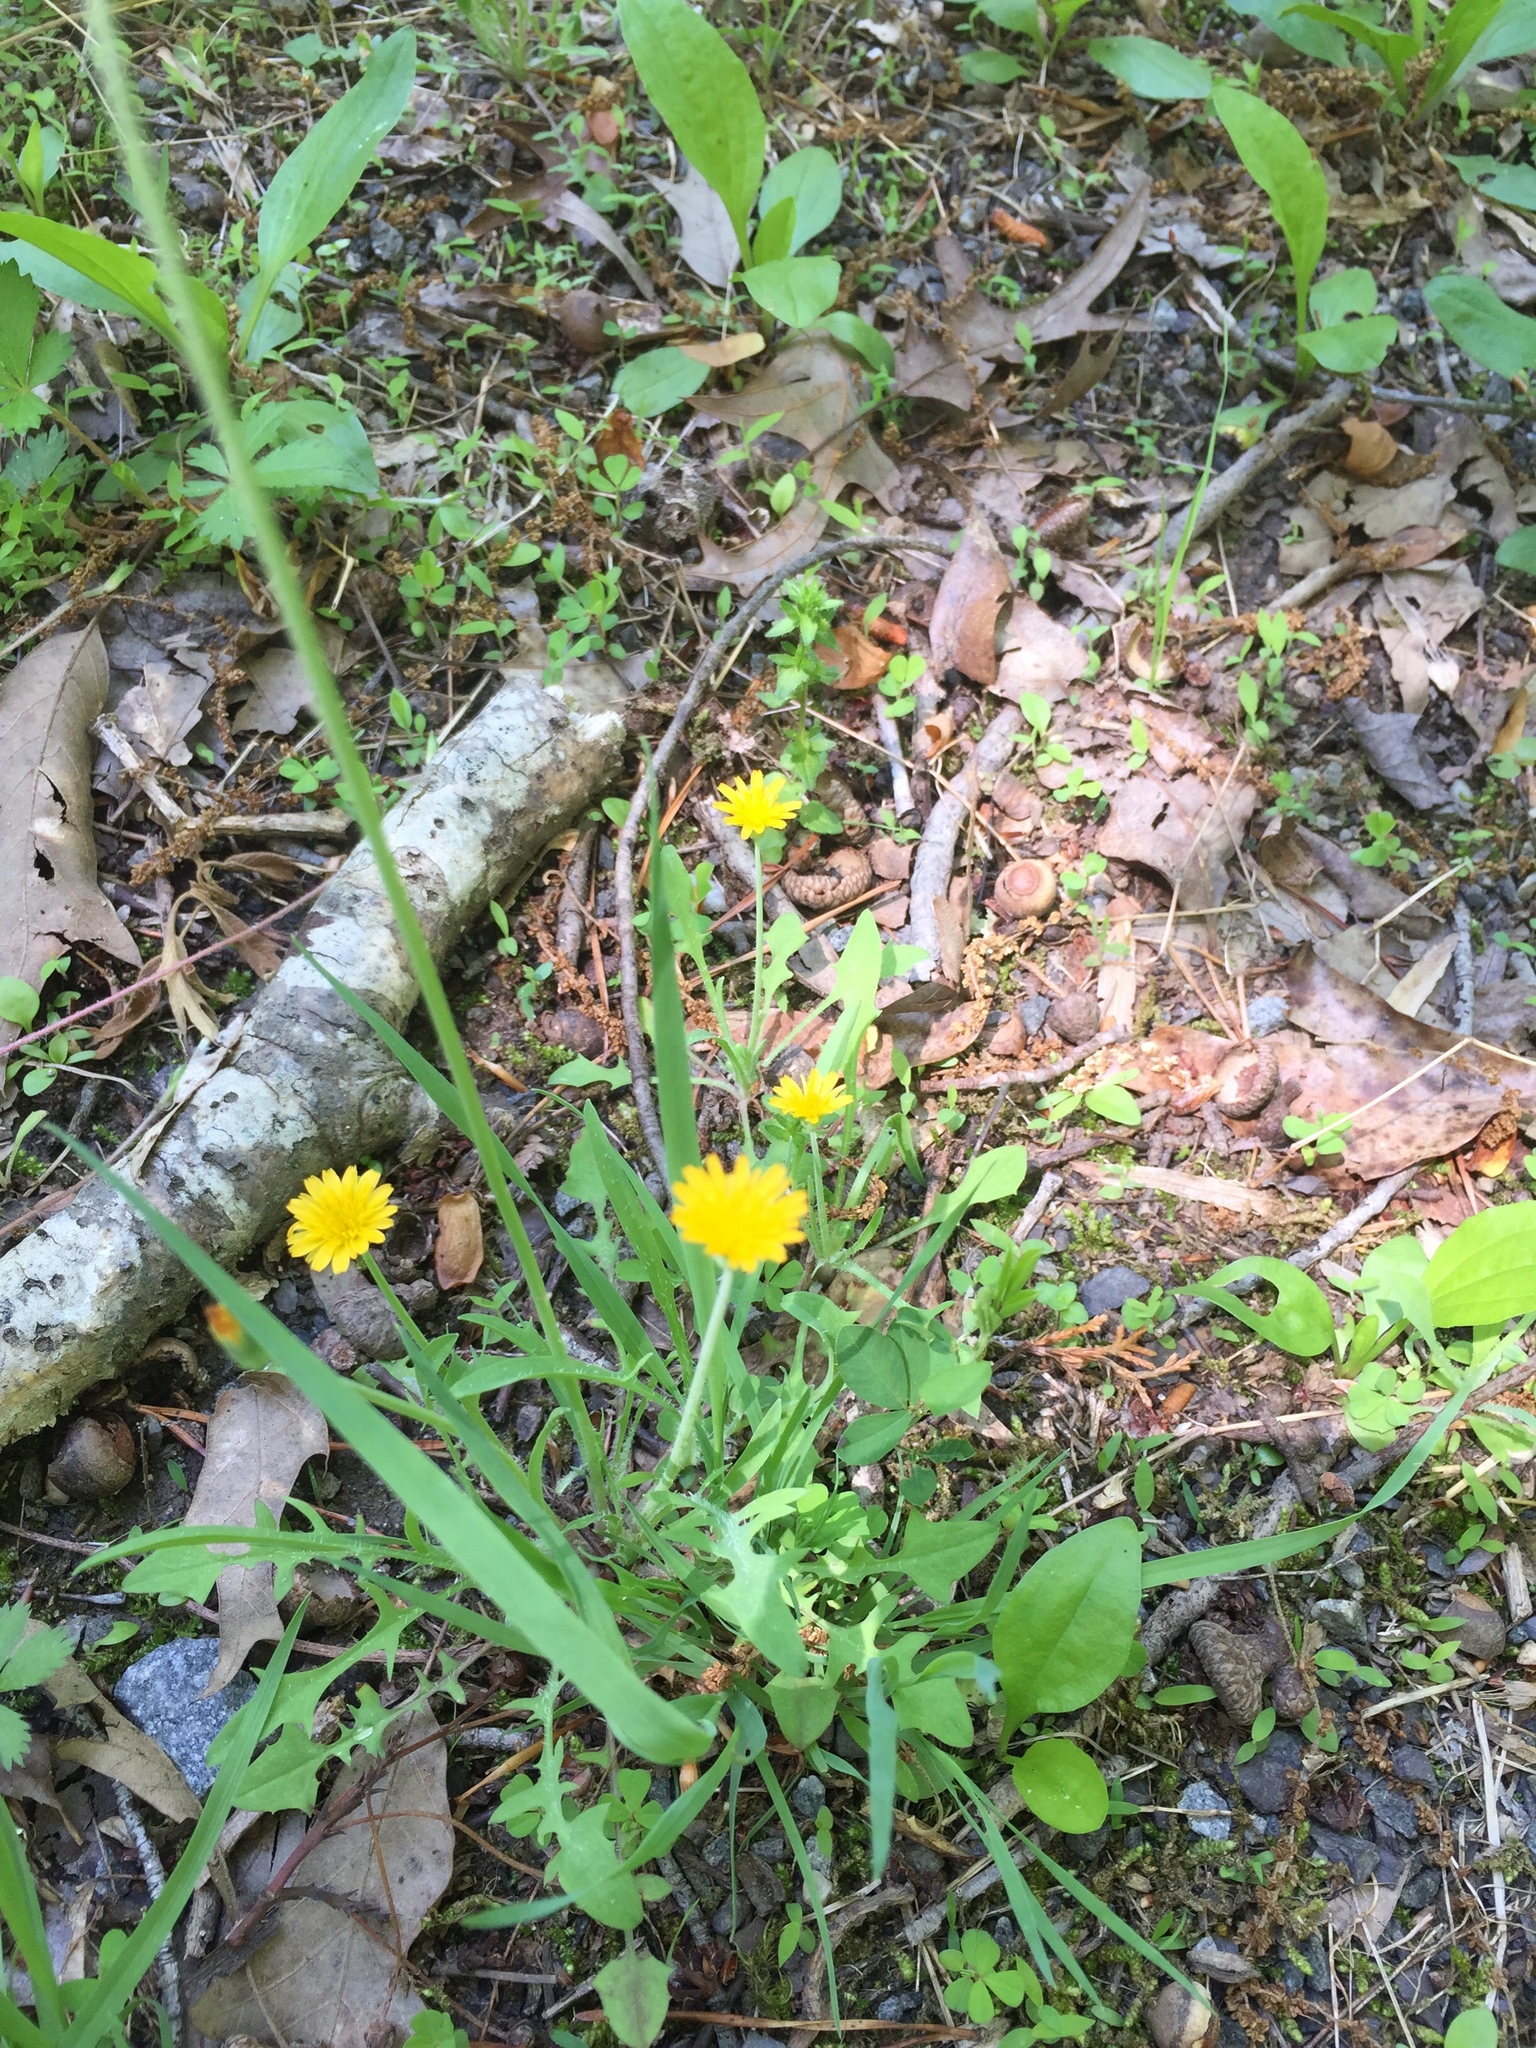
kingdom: Plantae
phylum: Tracheophyta
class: Magnoliopsida
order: Asterales
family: Asteraceae
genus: Krigia
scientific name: Krigia virginica
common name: Virginia dwarf-dandelion
